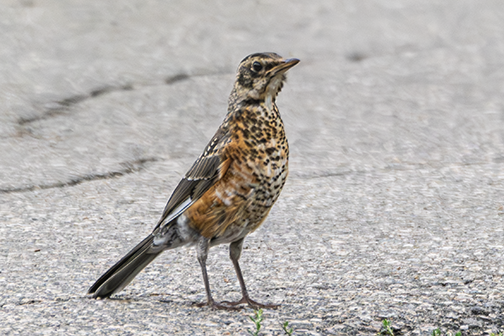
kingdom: Animalia
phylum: Chordata
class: Aves
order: Passeriformes
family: Turdidae
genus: Turdus
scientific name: Turdus migratorius
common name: American robin
